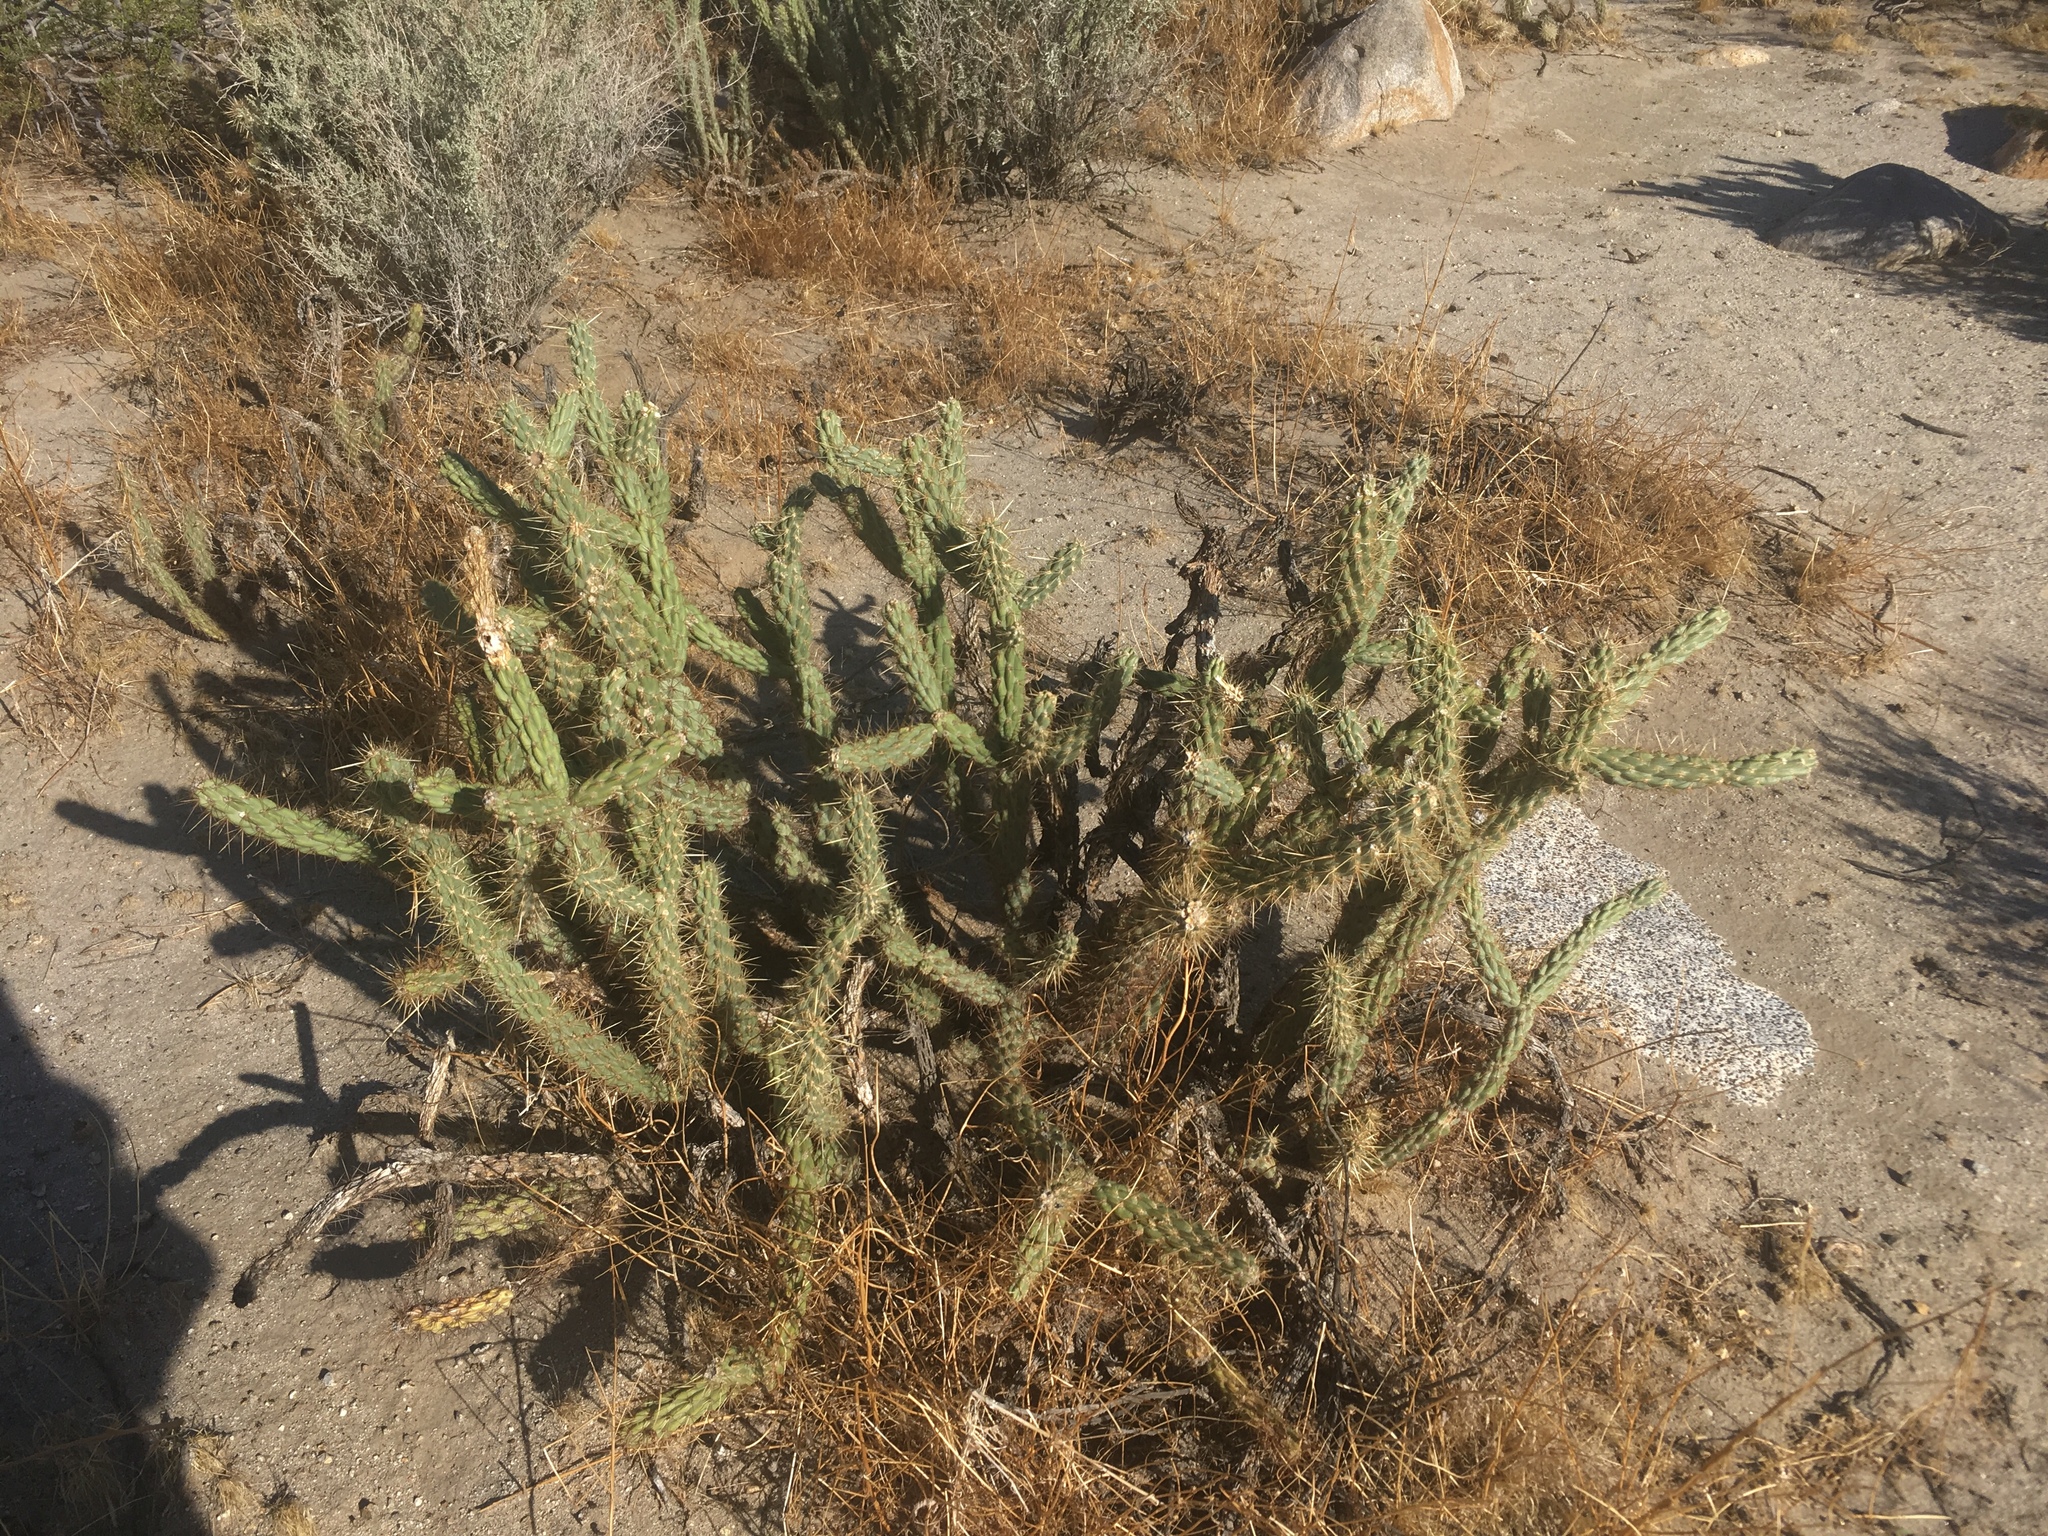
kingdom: Plantae
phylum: Tracheophyta
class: Magnoliopsida
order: Caryophyllales
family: Cactaceae
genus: Cylindropuntia
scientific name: Cylindropuntia ganderi
